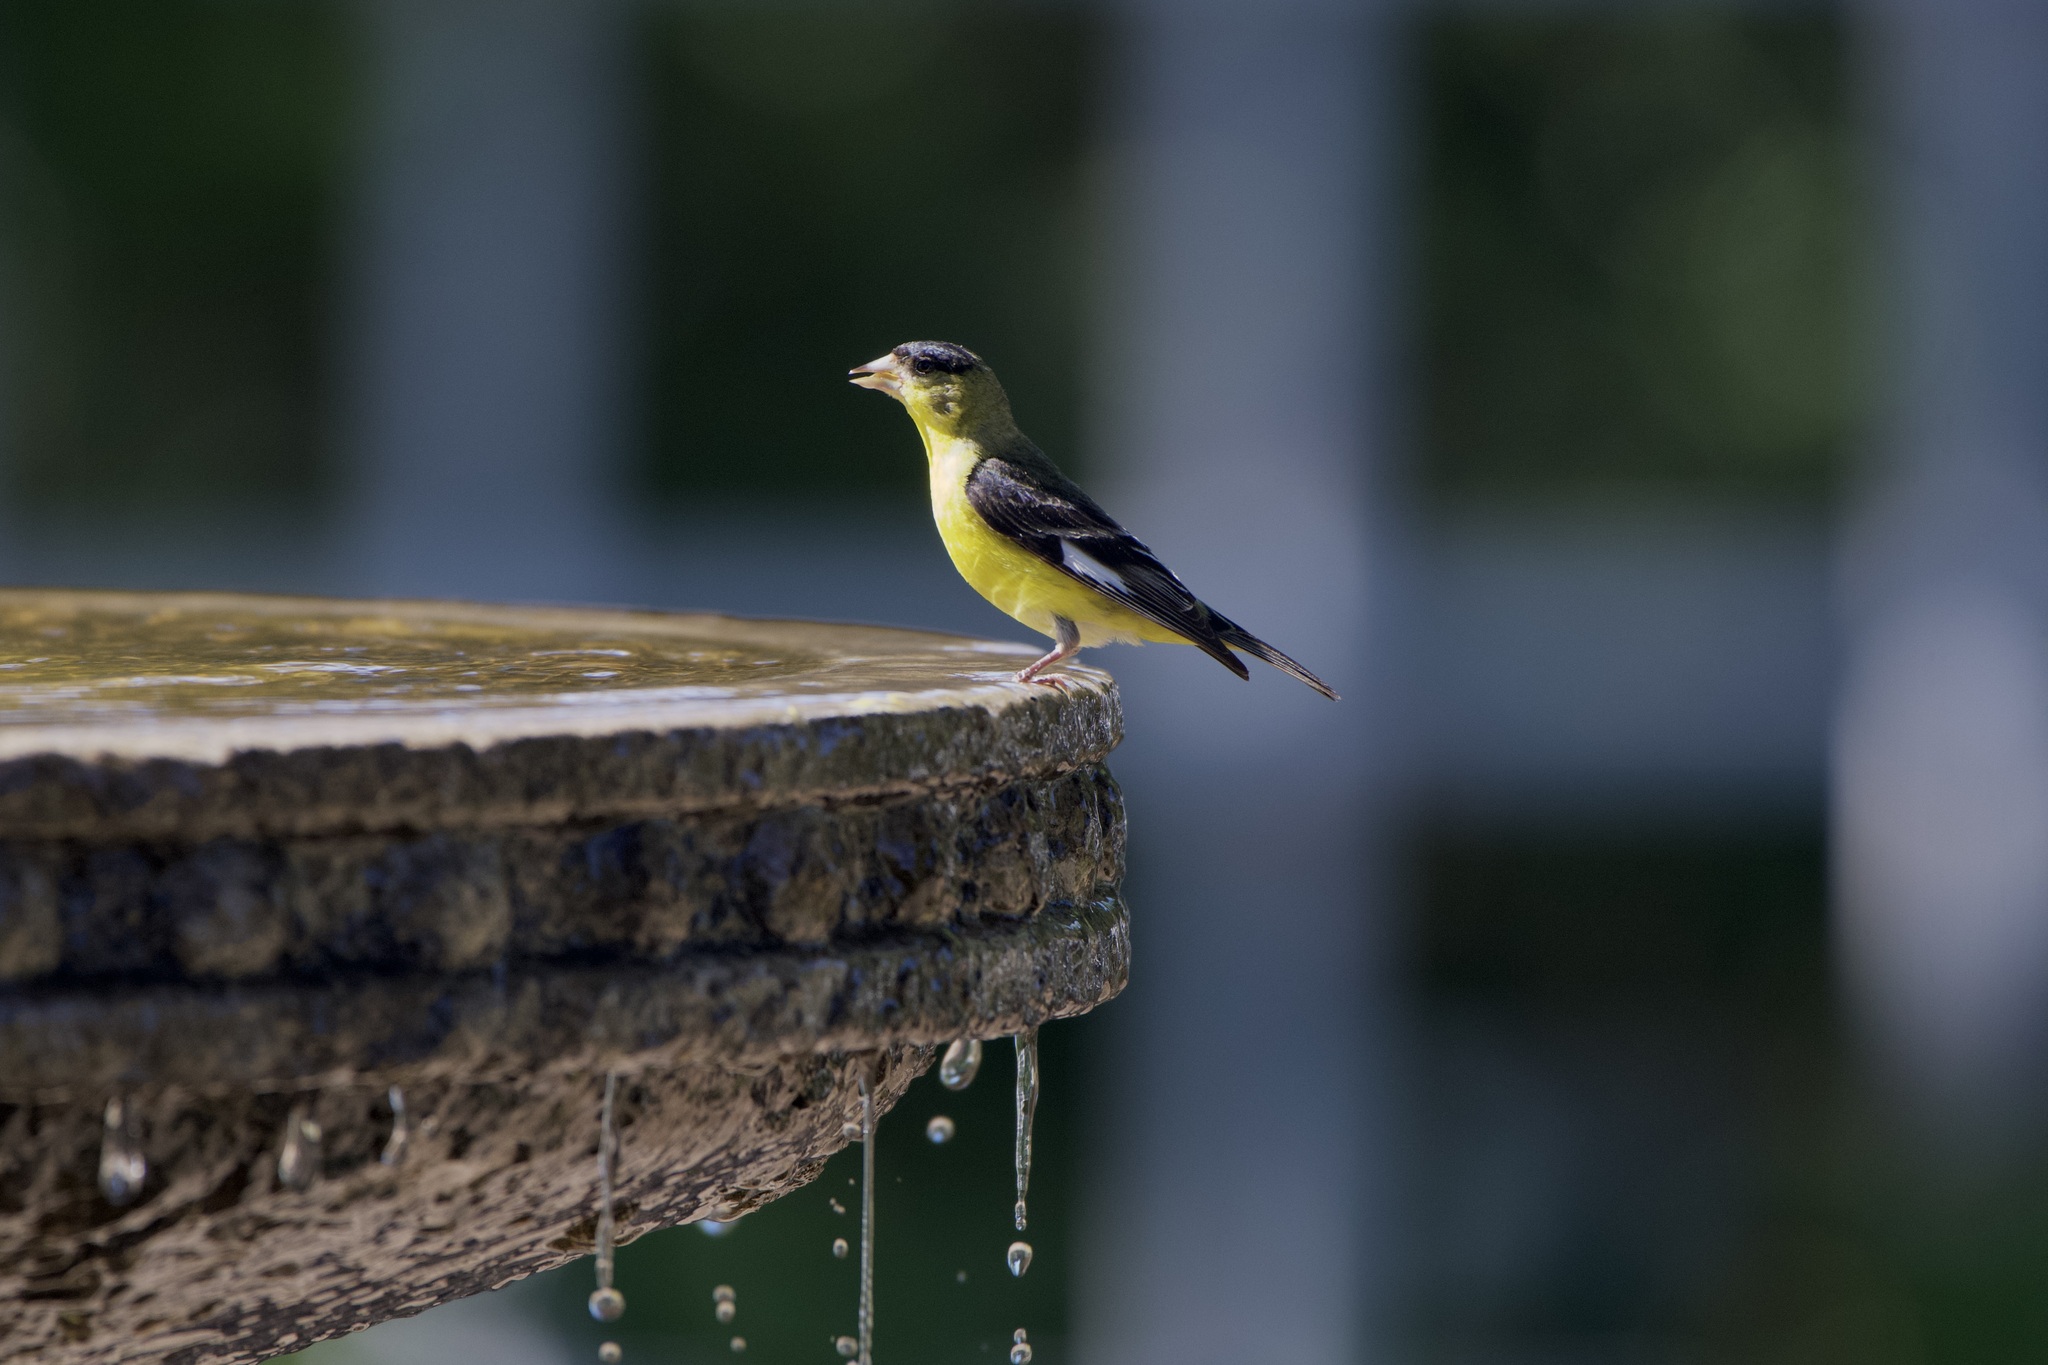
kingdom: Animalia
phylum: Chordata
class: Aves
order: Passeriformes
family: Fringillidae
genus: Spinus
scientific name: Spinus psaltria
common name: Lesser goldfinch
